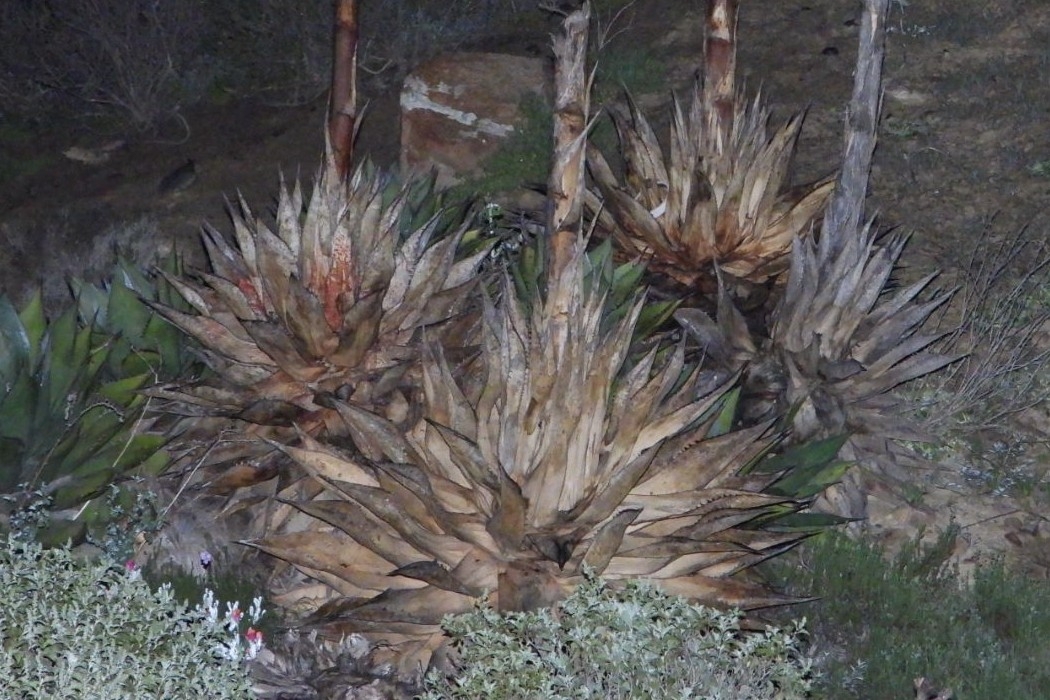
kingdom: Plantae
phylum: Tracheophyta
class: Liliopsida
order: Asparagales
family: Asparagaceae
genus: Agave
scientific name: Agave shawii
